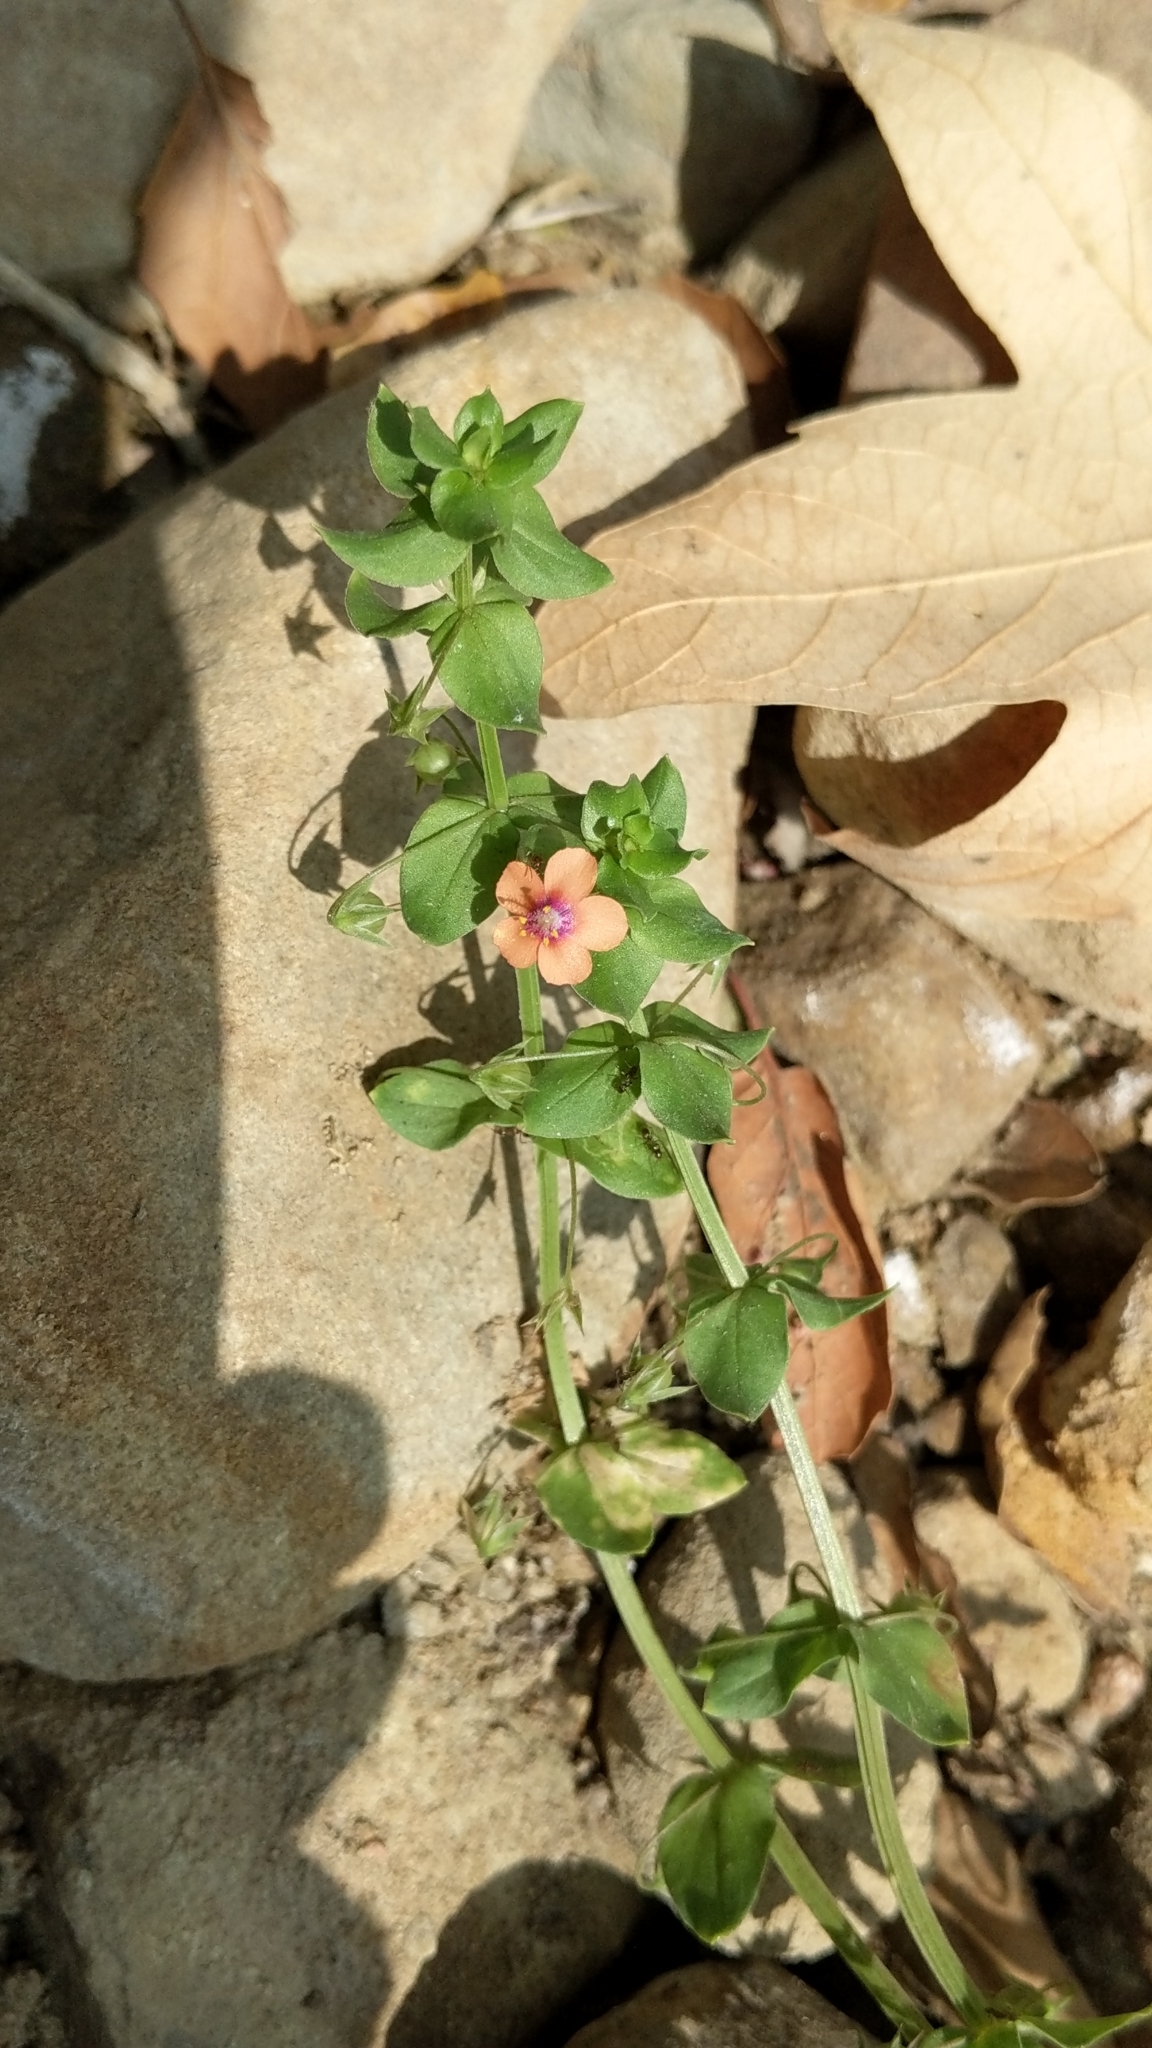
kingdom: Plantae
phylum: Tracheophyta
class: Magnoliopsida
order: Ericales
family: Primulaceae
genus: Lysimachia
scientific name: Lysimachia arvensis
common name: Scarlet pimpernel
